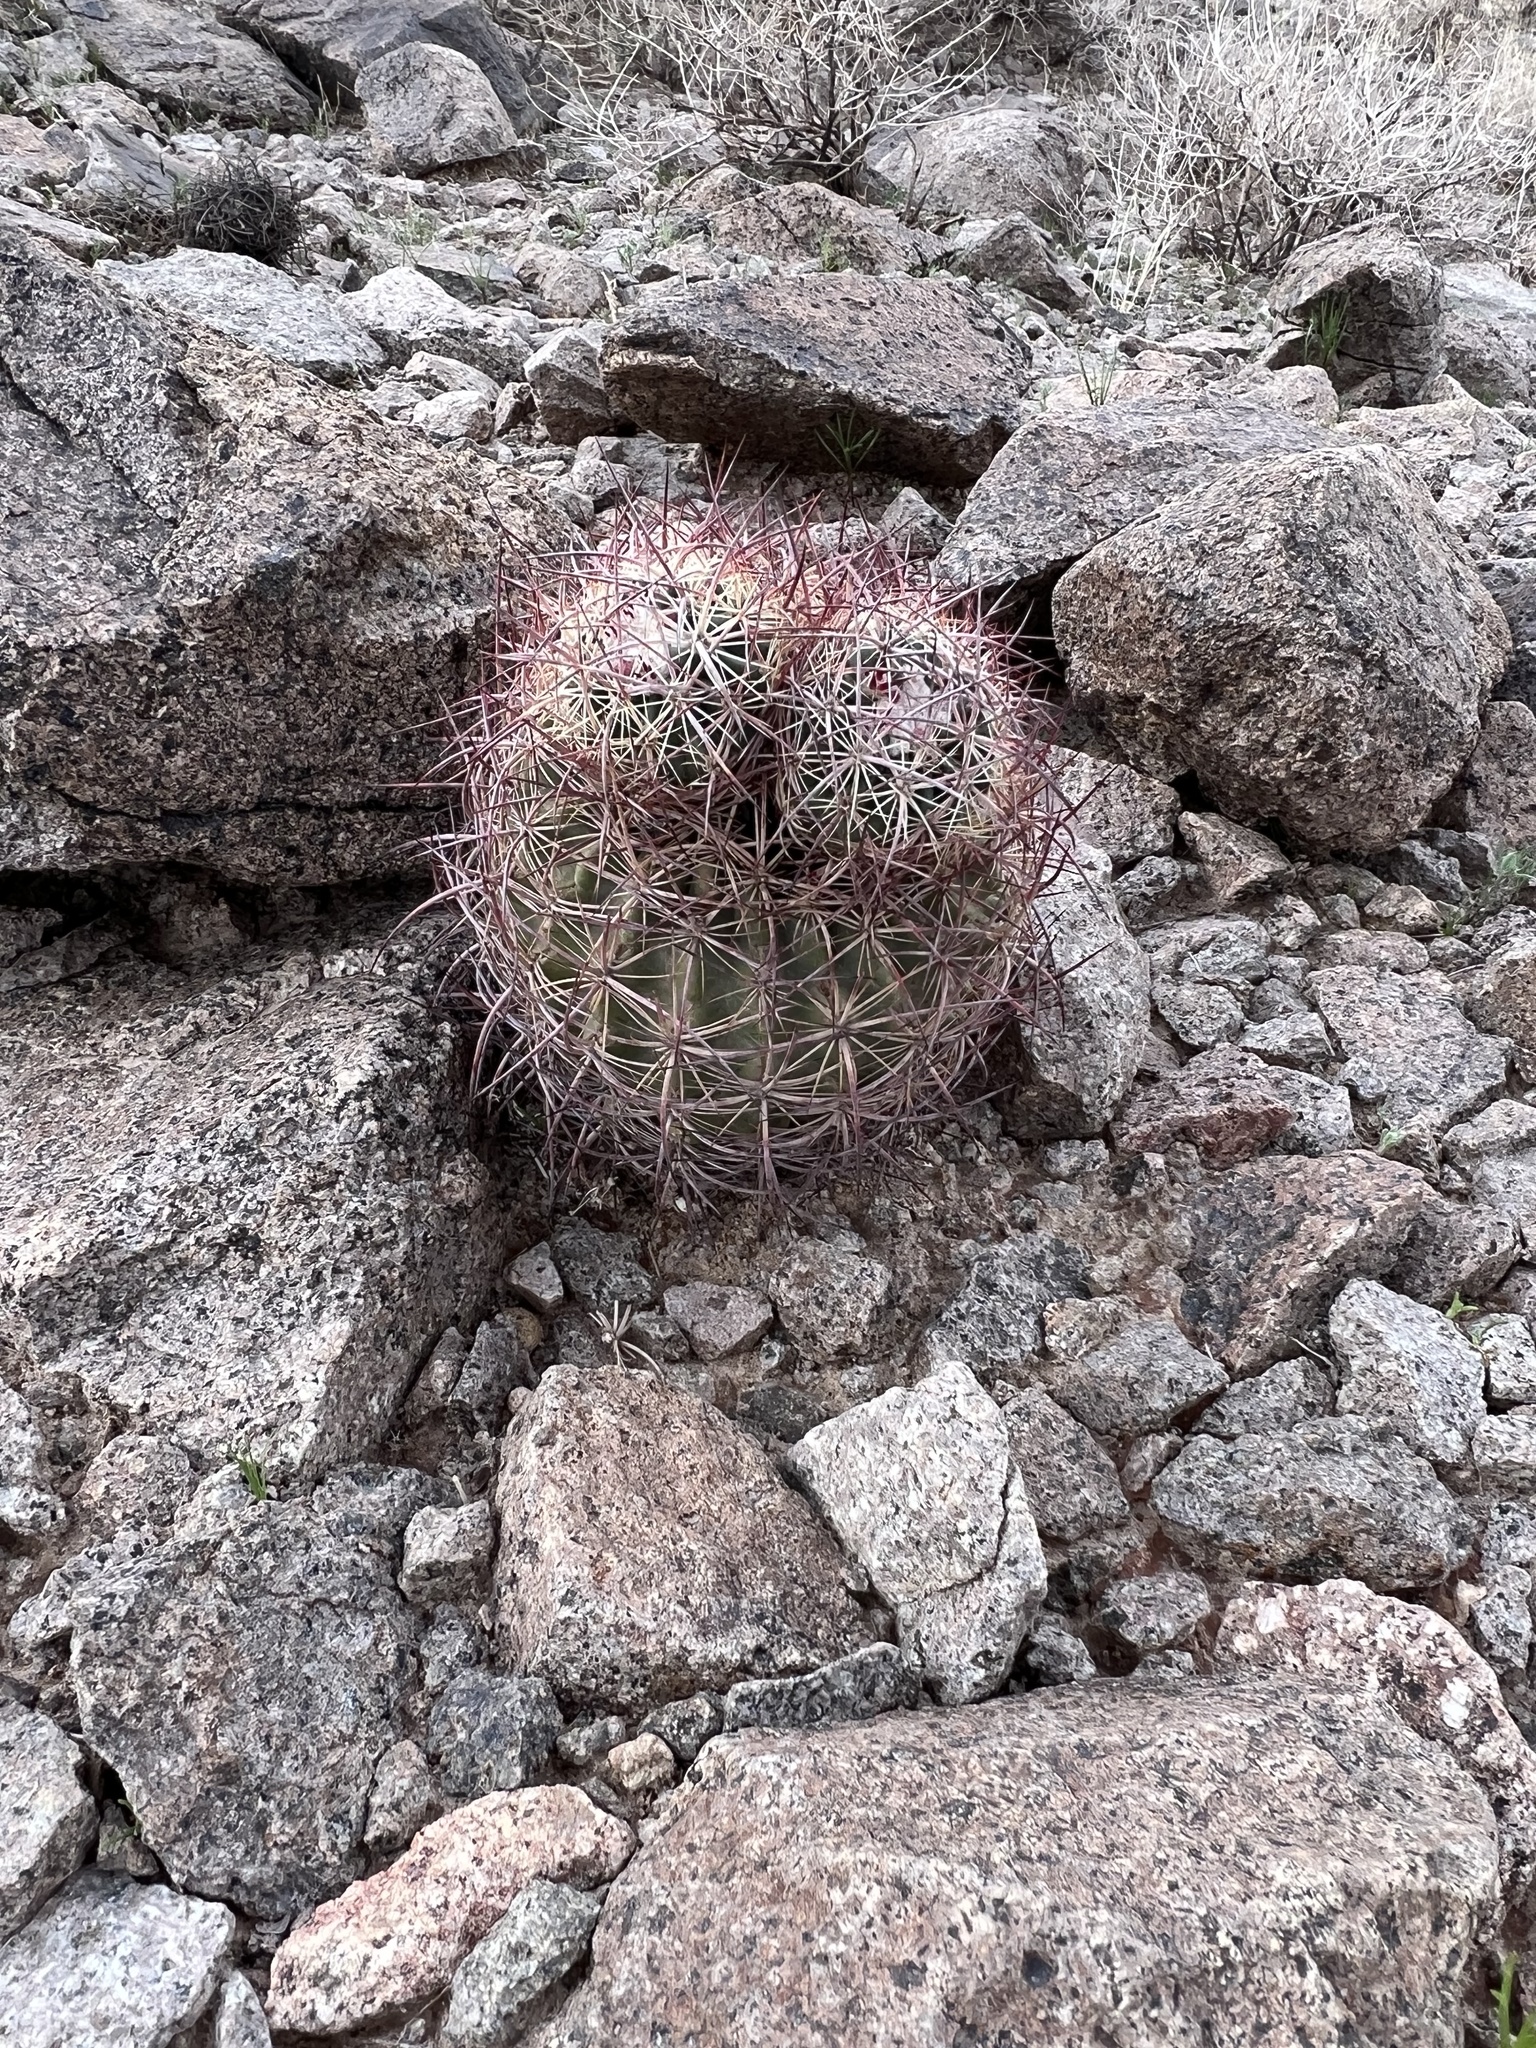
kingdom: Plantae
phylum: Tracheophyta
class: Magnoliopsida
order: Caryophyllales
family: Cactaceae
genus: Sclerocactus
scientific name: Sclerocactus johnsonii
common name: Eight-spine fishhook cactus
